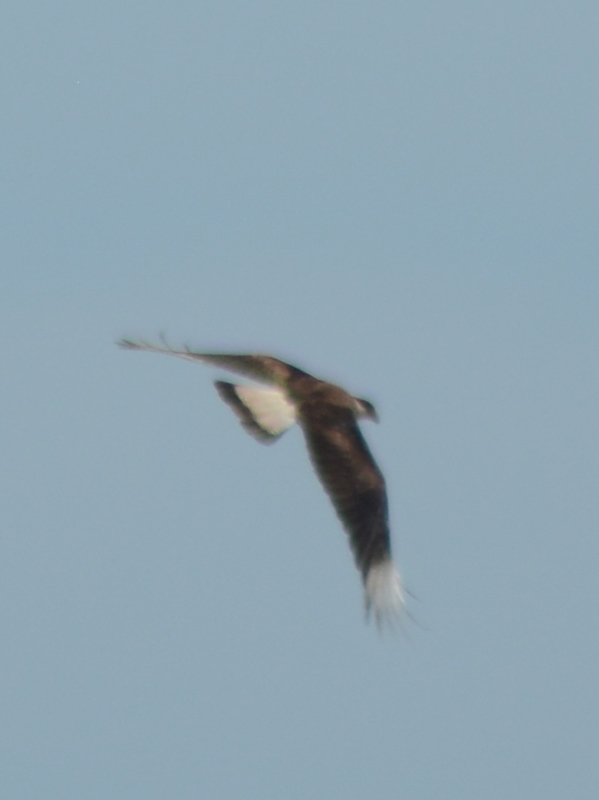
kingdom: Animalia
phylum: Chordata
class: Aves
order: Falconiformes
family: Falconidae
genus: Caracara
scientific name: Caracara plancus
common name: Southern caracara
